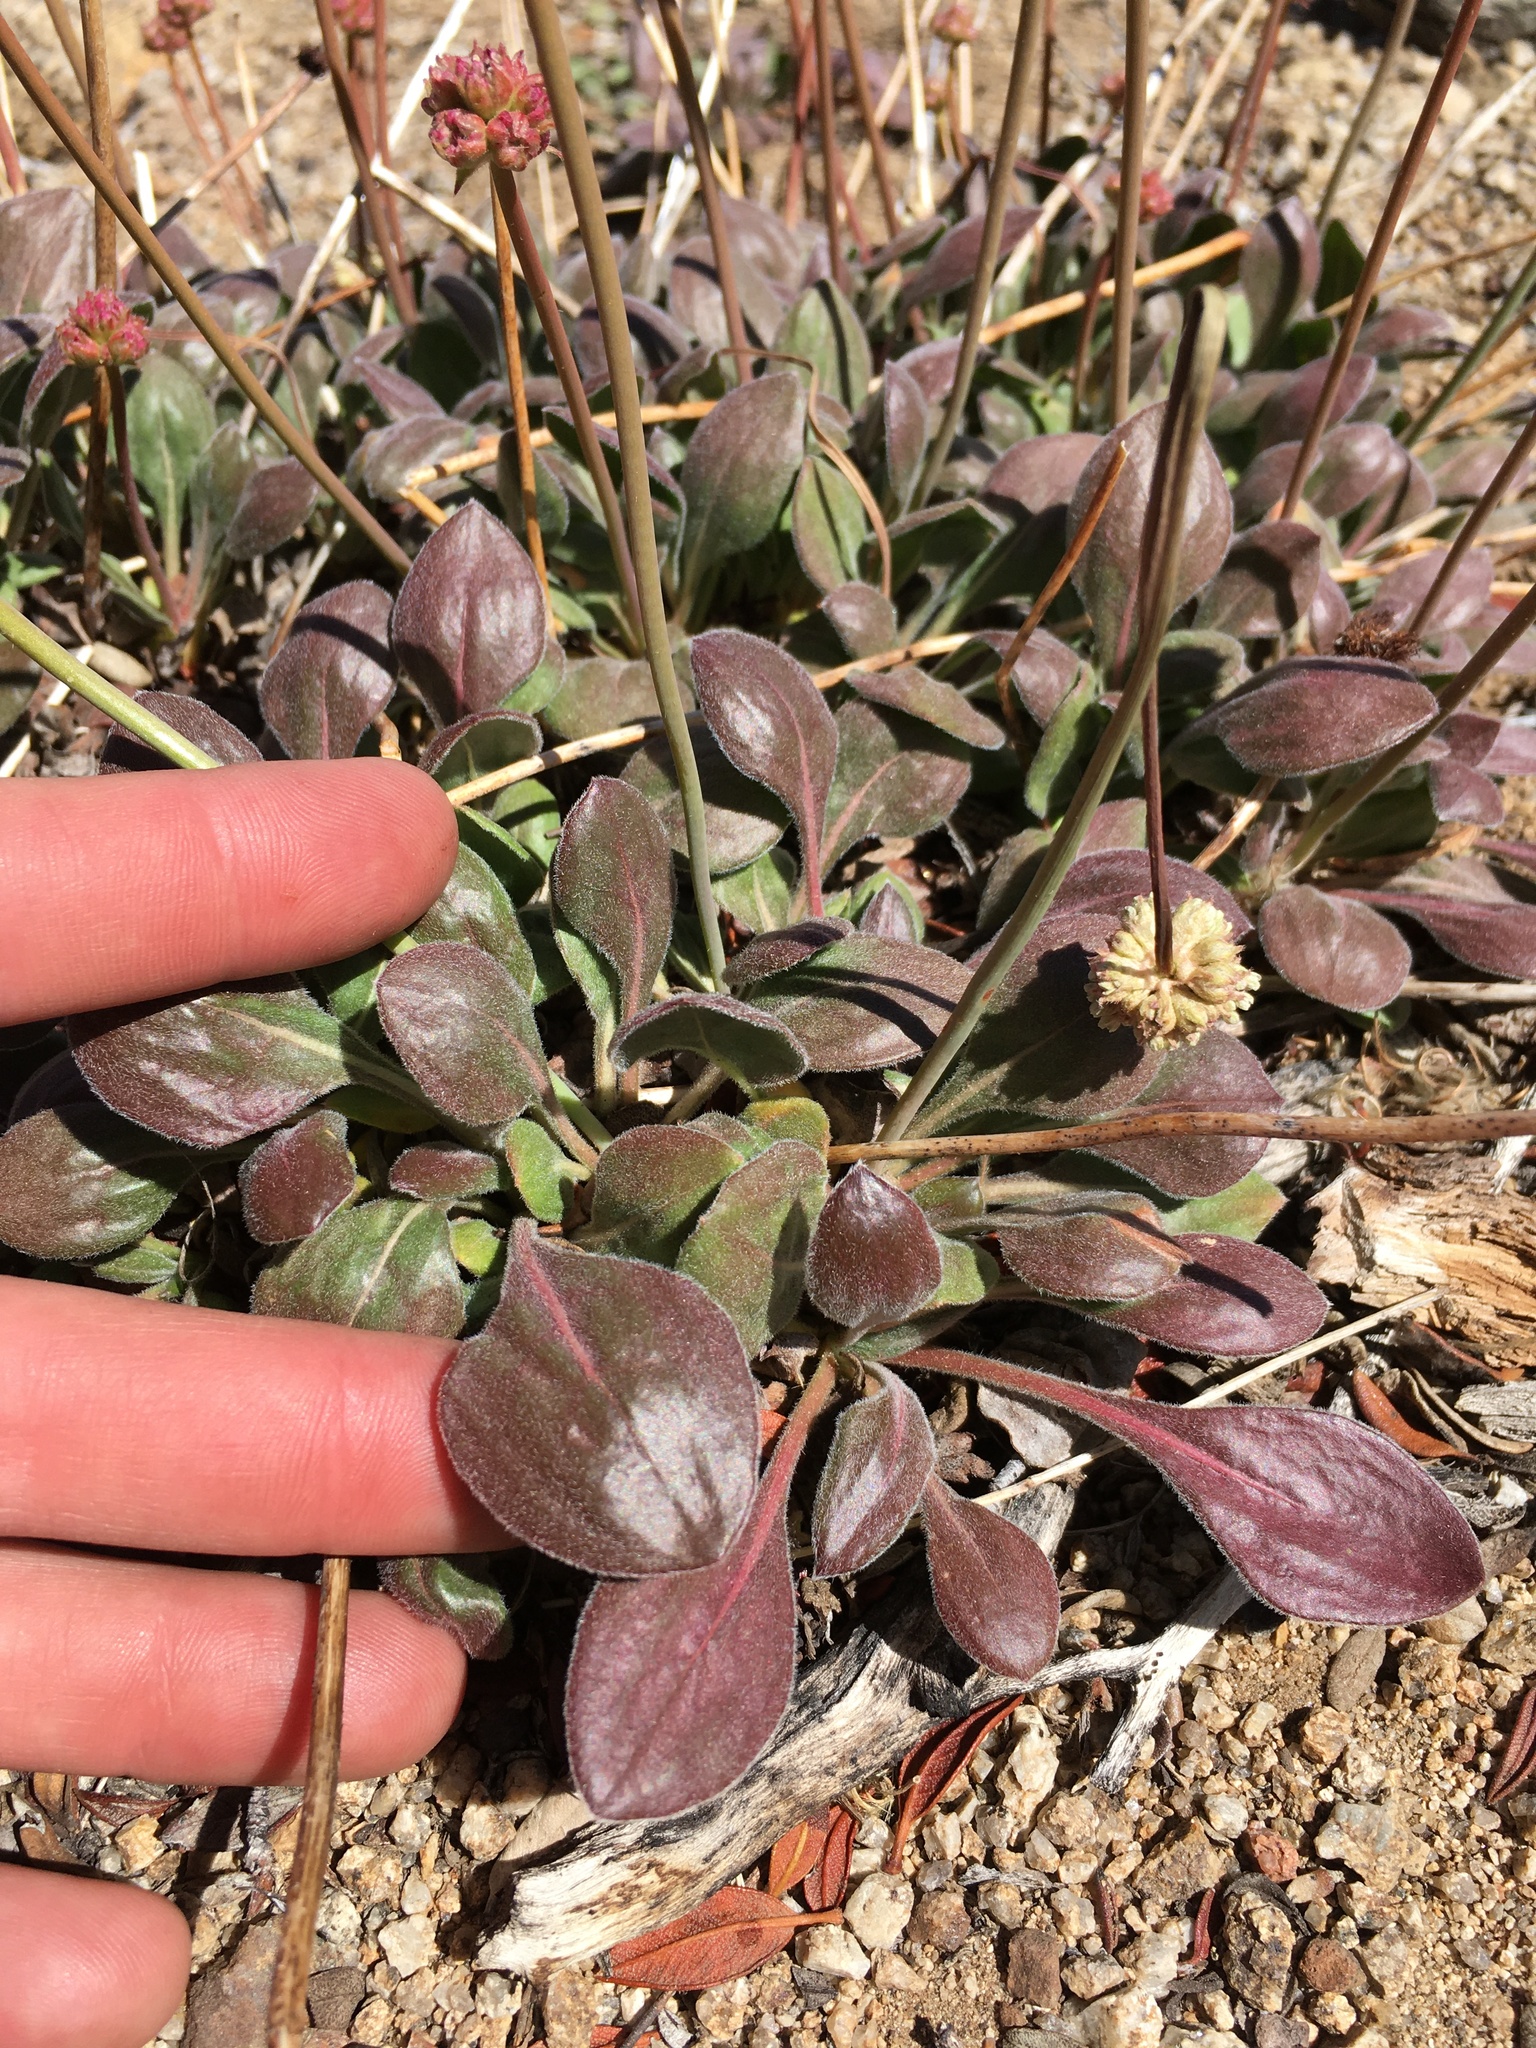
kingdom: Plantae
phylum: Tracheophyta
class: Magnoliopsida
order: Caryophyllales
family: Polygonaceae
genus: Eriogonum
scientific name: Eriogonum latens
